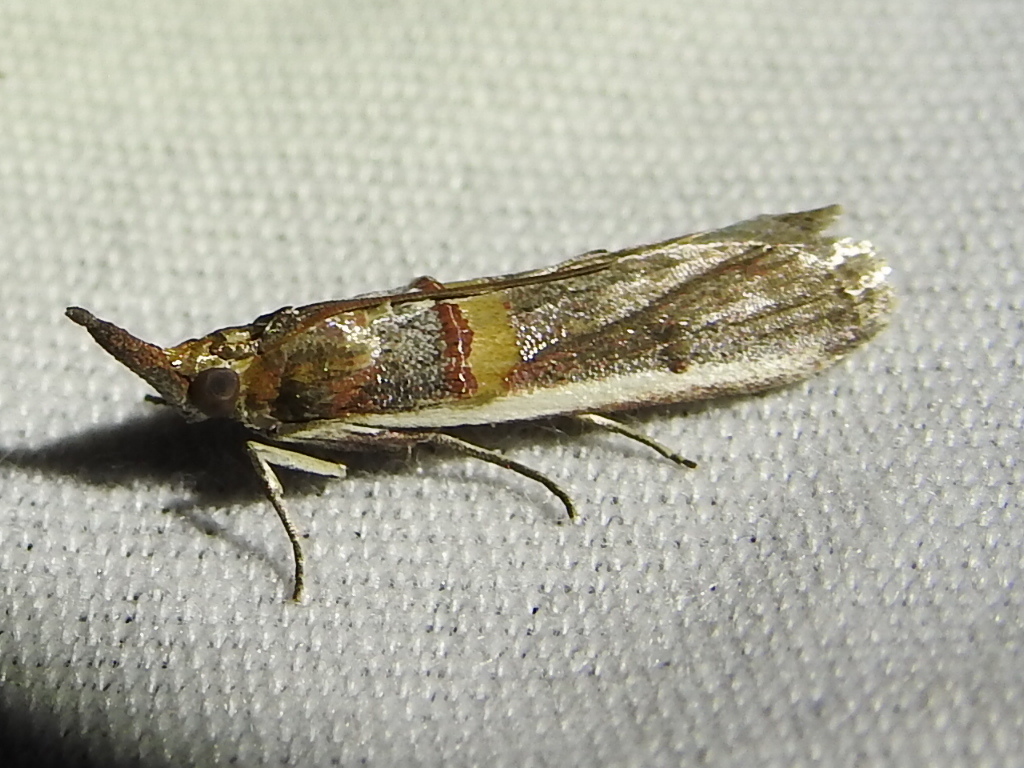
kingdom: Animalia
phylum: Arthropoda
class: Insecta
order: Lepidoptera
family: Pyralidae
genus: Etiella
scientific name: Etiella zinckenella
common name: Gold-banded etiella moth
